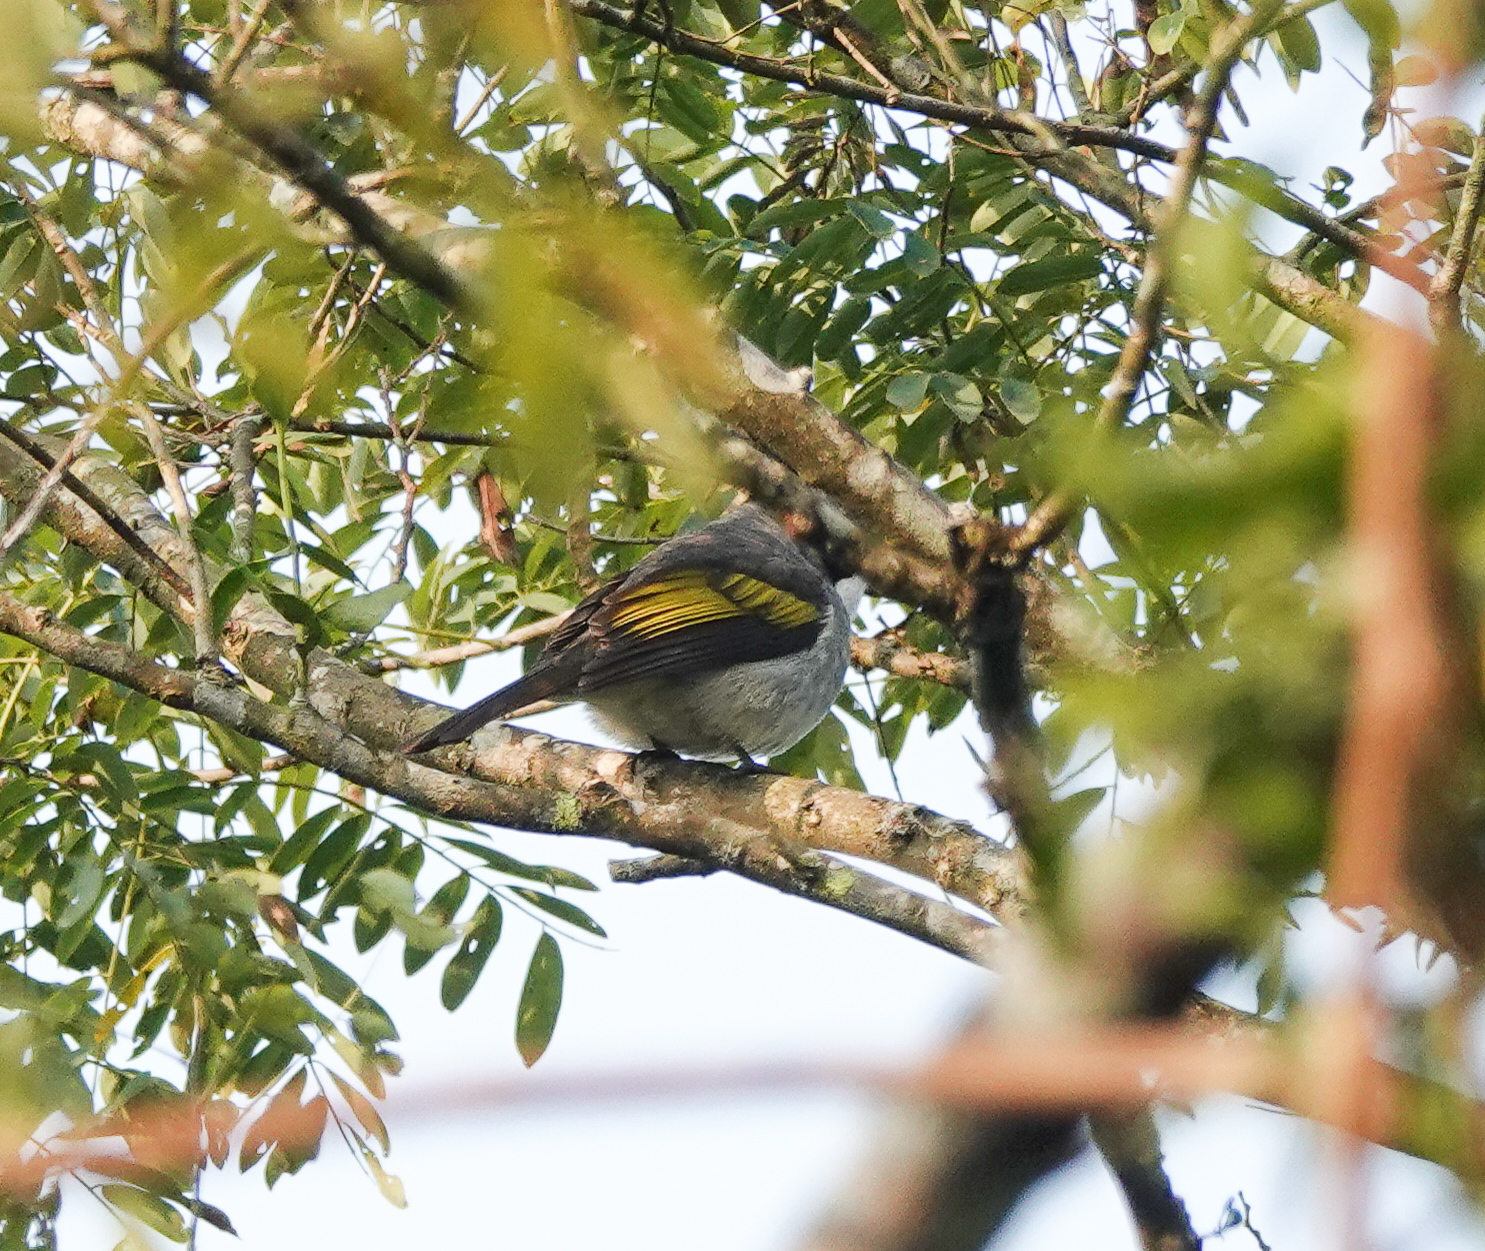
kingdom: Animalia
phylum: Chordata
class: Aves
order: Passeriformes
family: Pycnonotidae
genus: Hemixos
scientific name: Hemixos flavala
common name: Ashy bulbul
